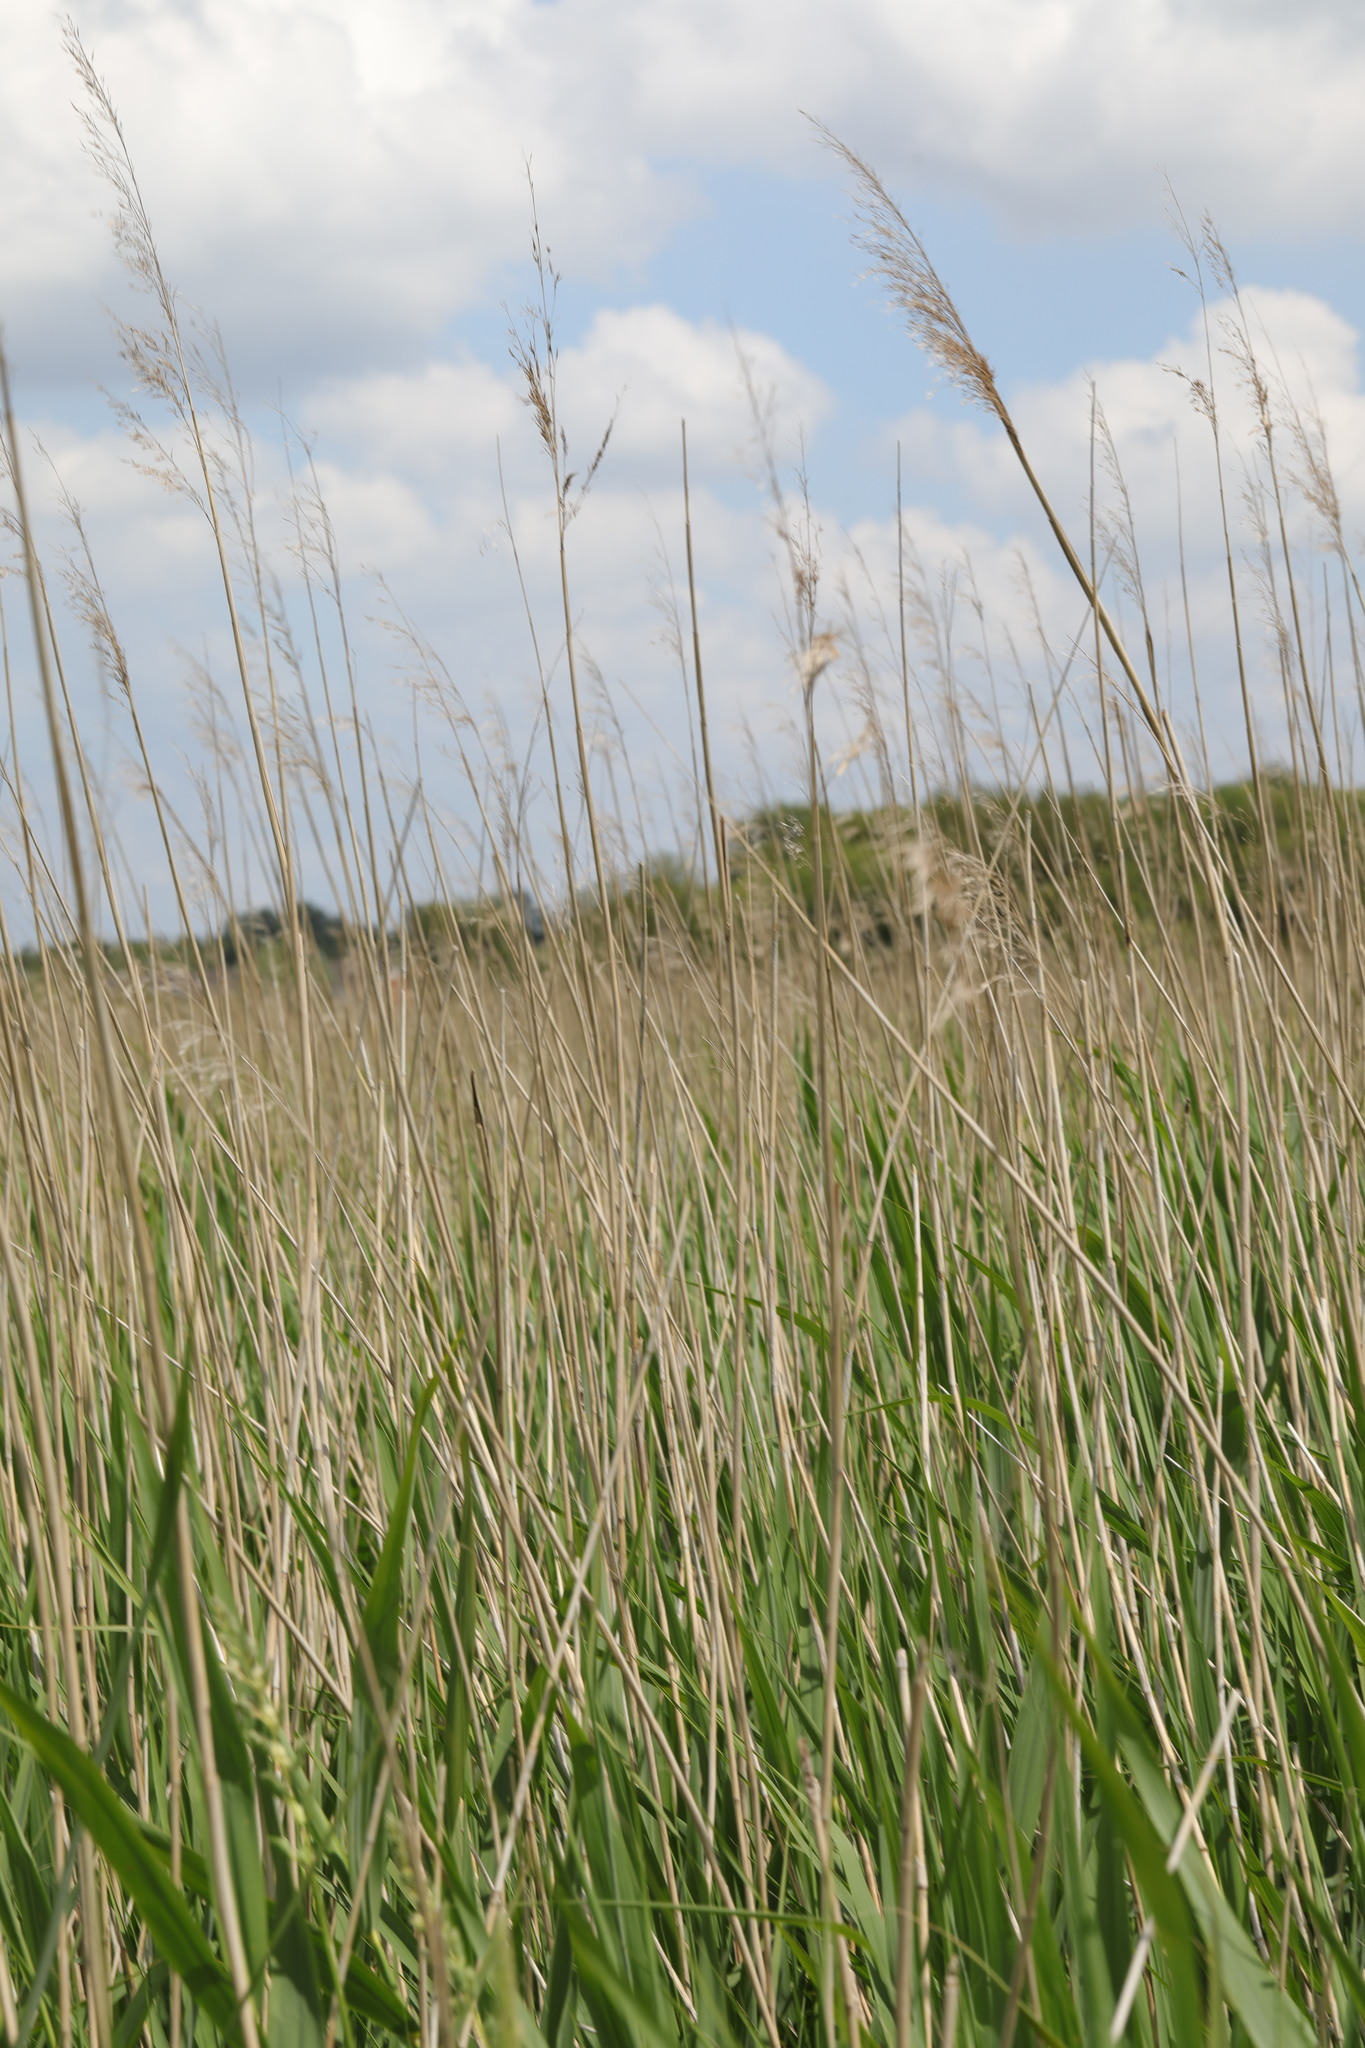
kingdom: Plantae
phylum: Tracheophyta
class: Liliopsida
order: Poales
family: Poaceae
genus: Phragmites
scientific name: Phragmites australis
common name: Common reed
